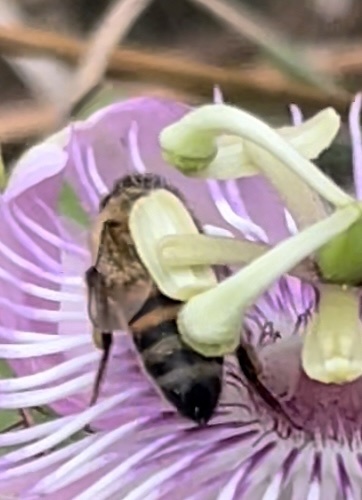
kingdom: Animalia
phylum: Arthropoda
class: Insecta
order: Hymenoptera
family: Apidae
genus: Apis
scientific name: Apis mellifera
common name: Honey bee
